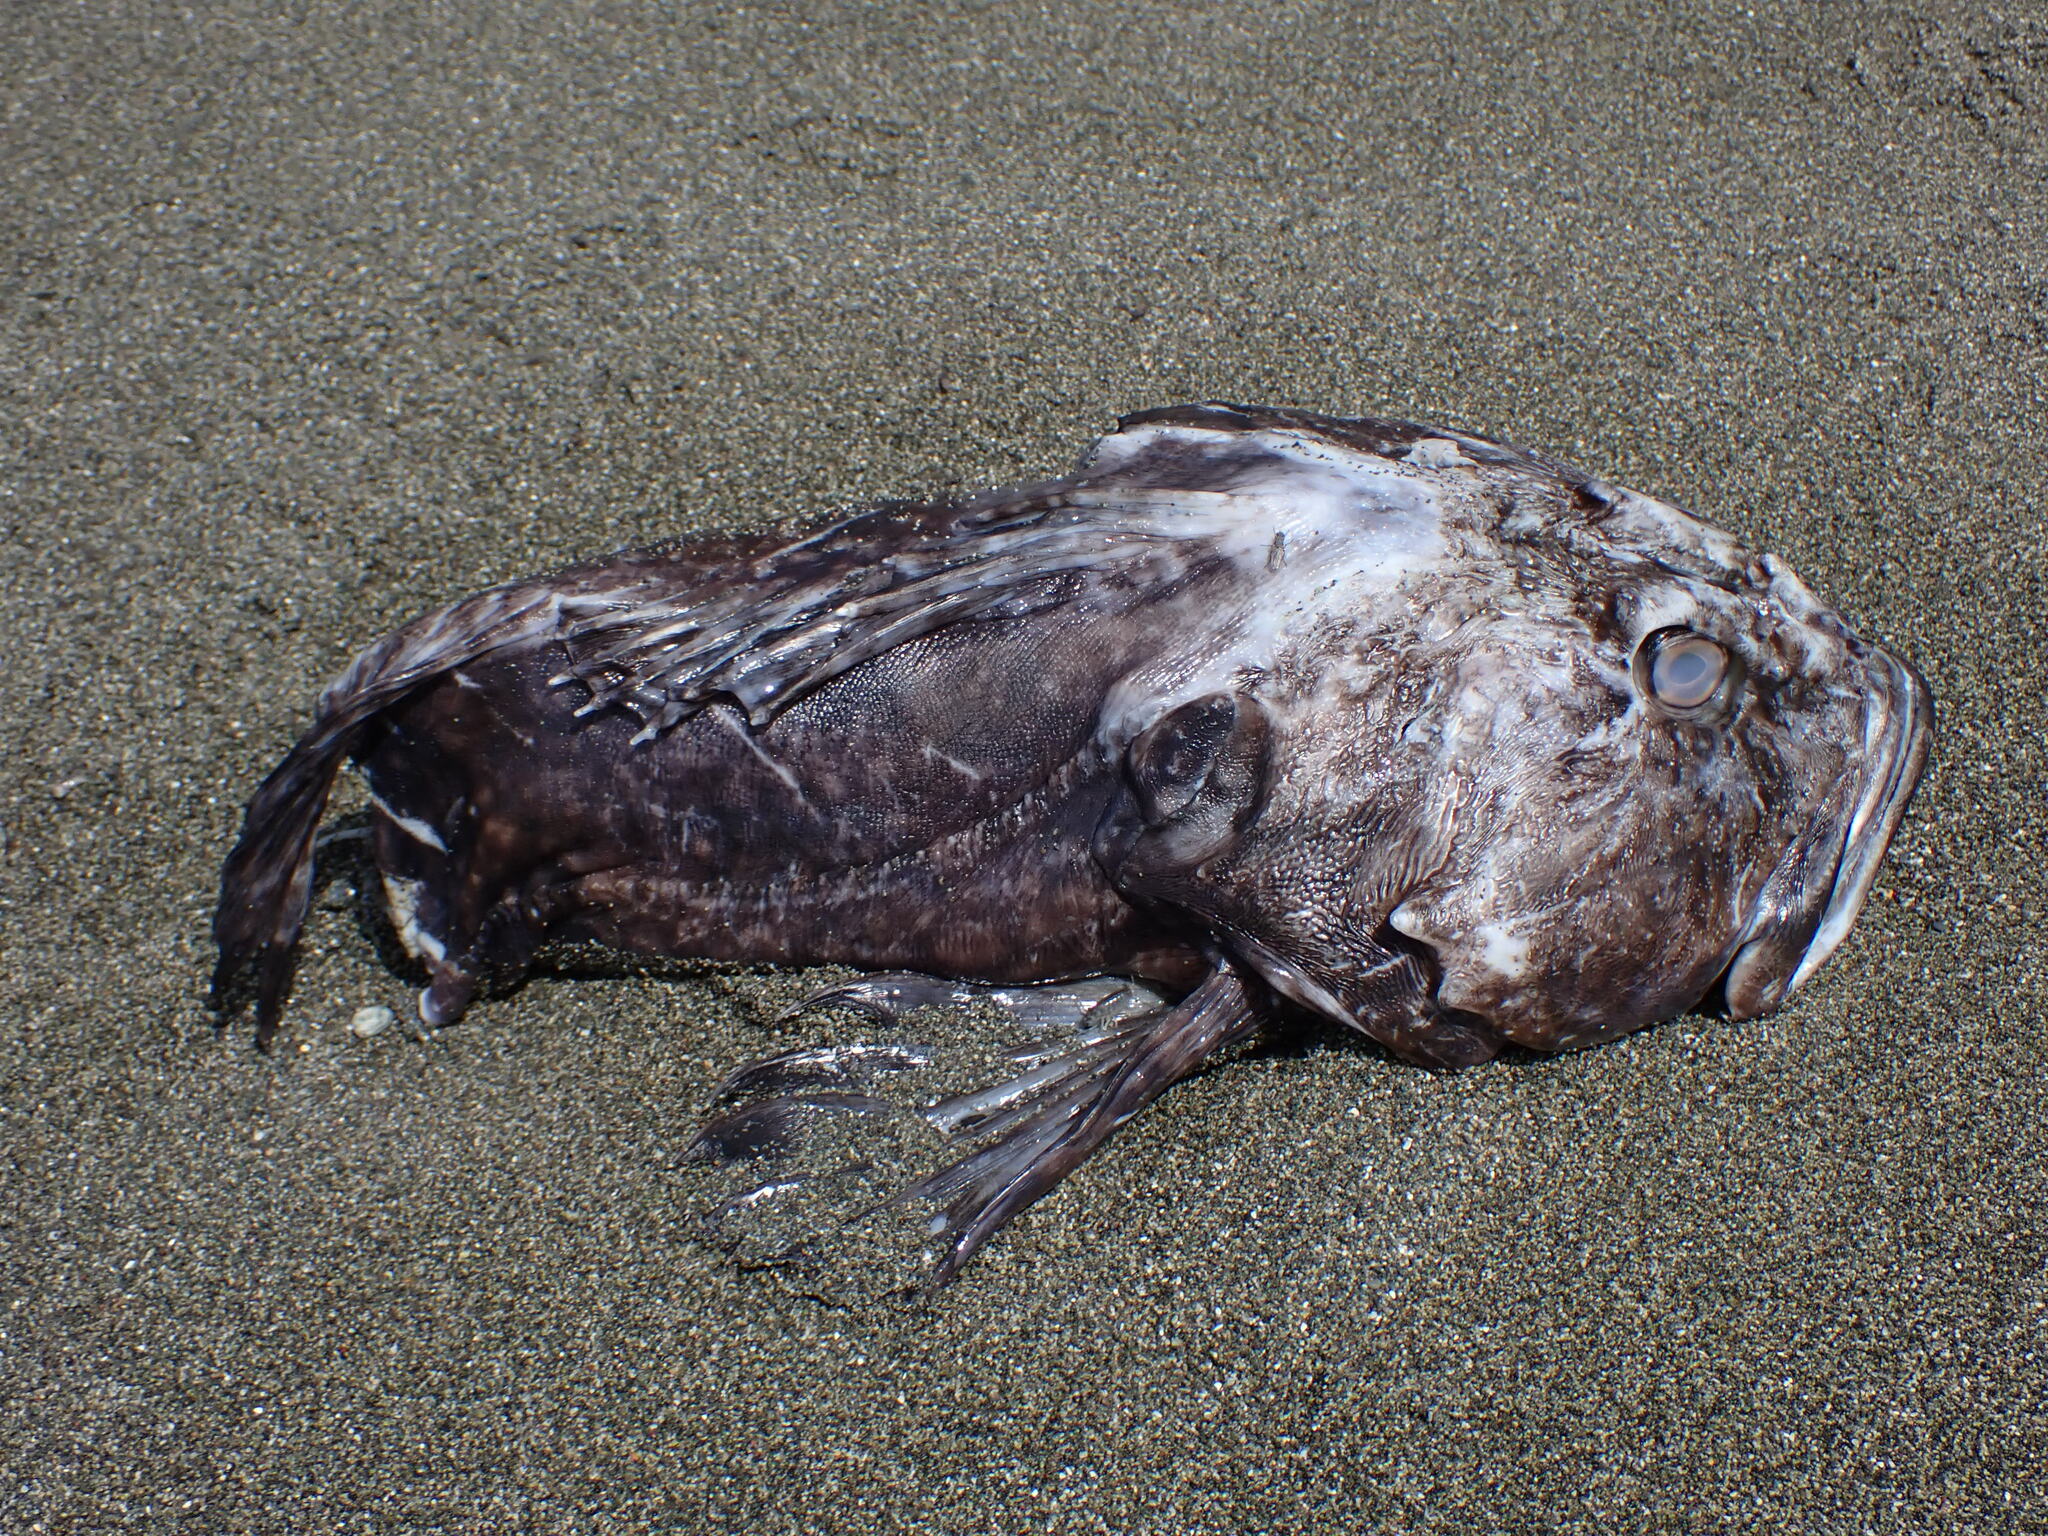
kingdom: Animalia
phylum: Chordata
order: Scorpaeniformes
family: Cottidae
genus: Scorpaenichthys
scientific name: Scorpaenichthys marmoratus
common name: Cabezon
